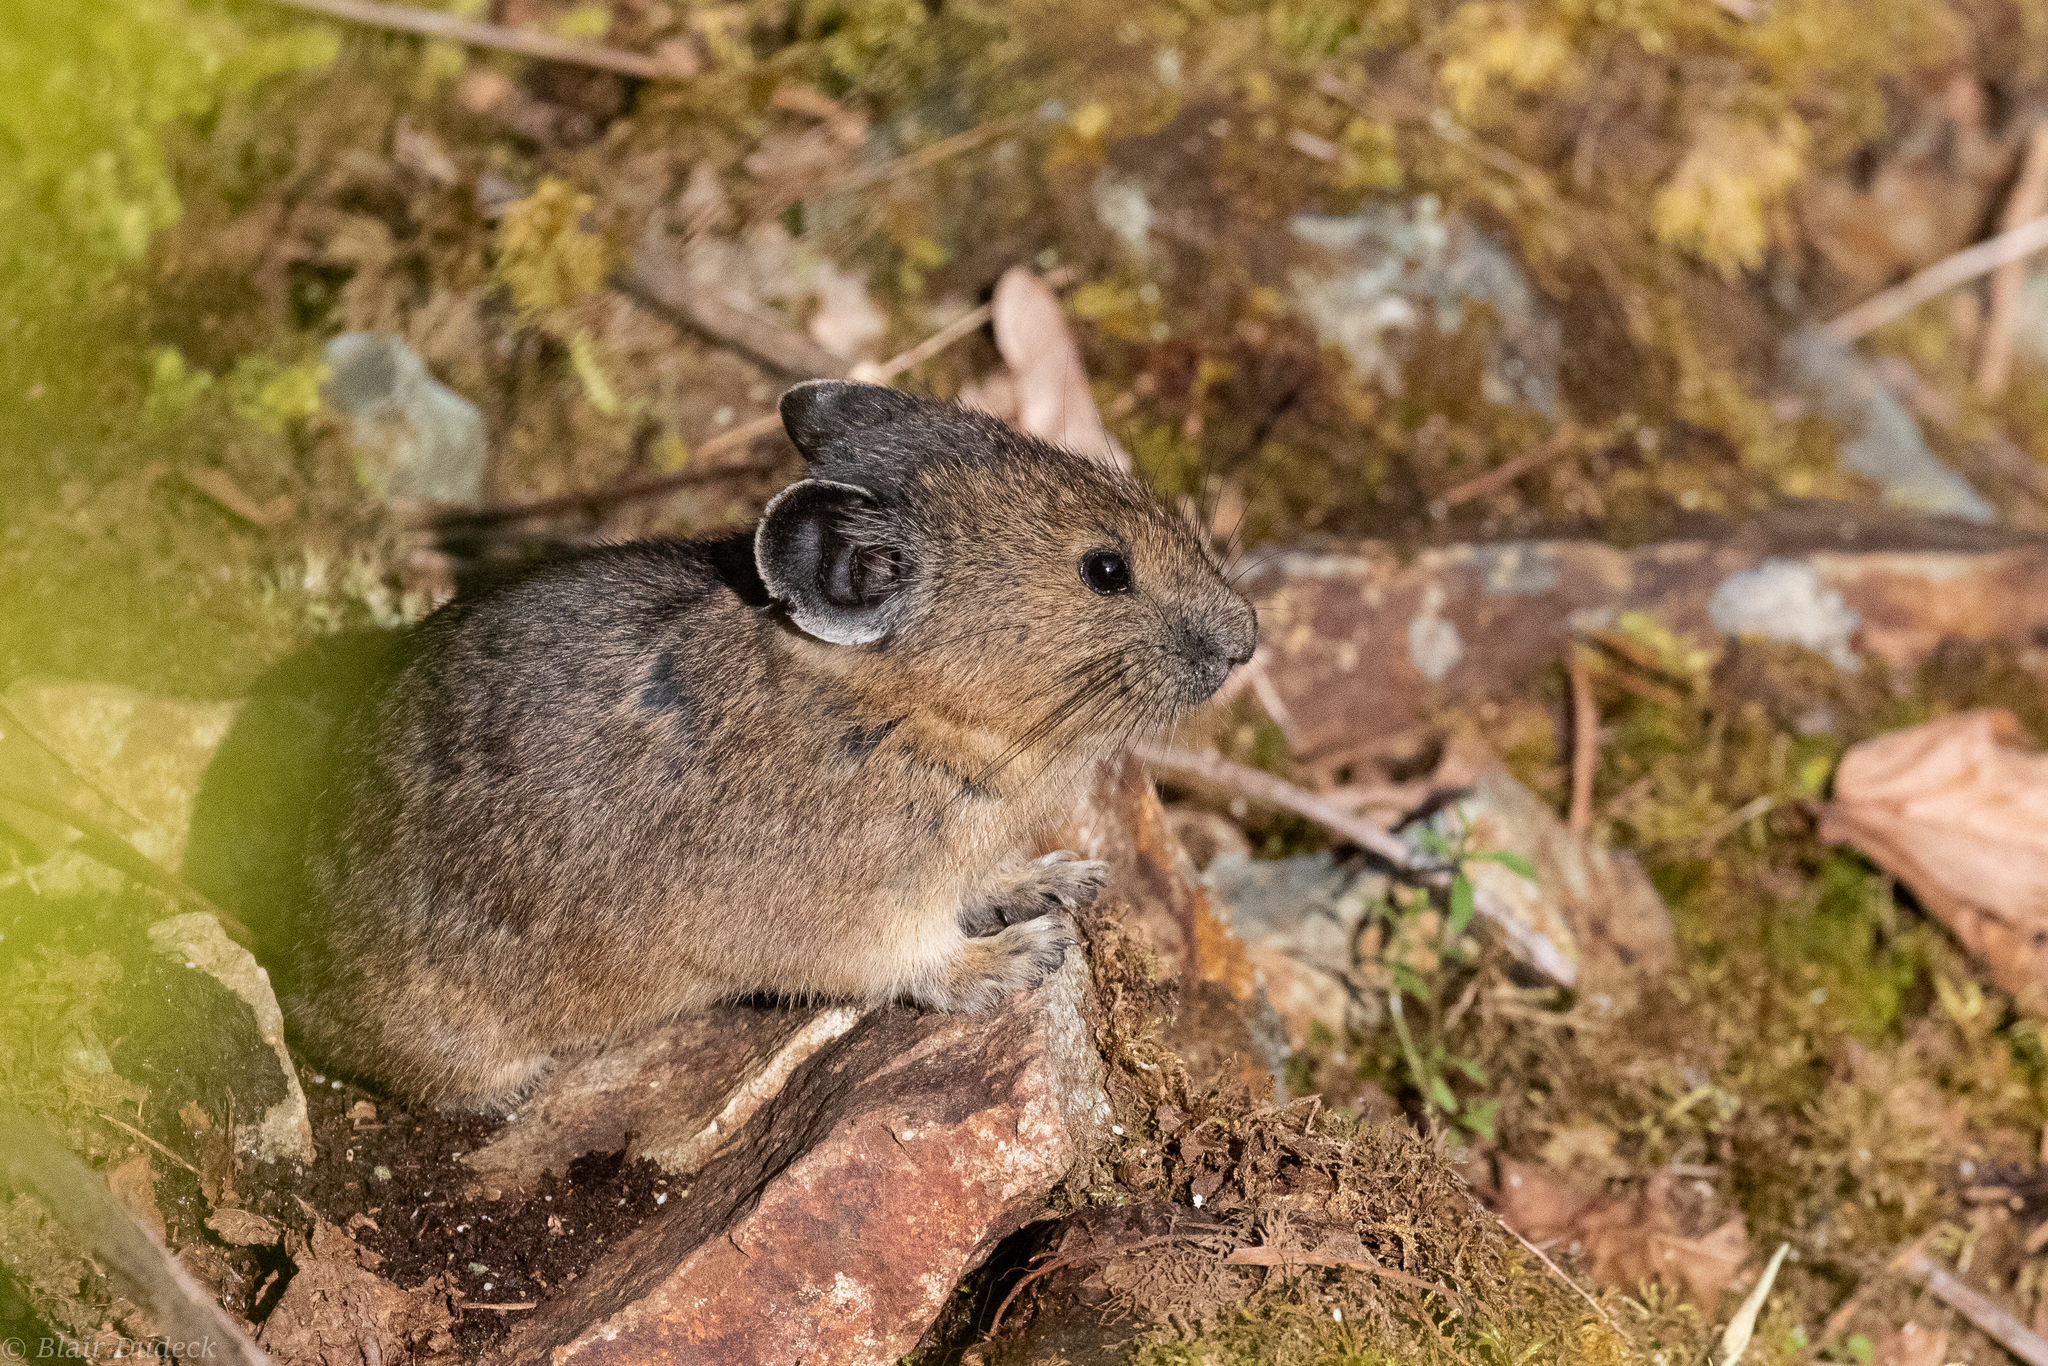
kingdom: Animalia
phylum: Chordata
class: Mammalia
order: Lagomorpha
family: Ochotonidae
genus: Ochotona
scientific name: Ochotona princeps
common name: American pika
